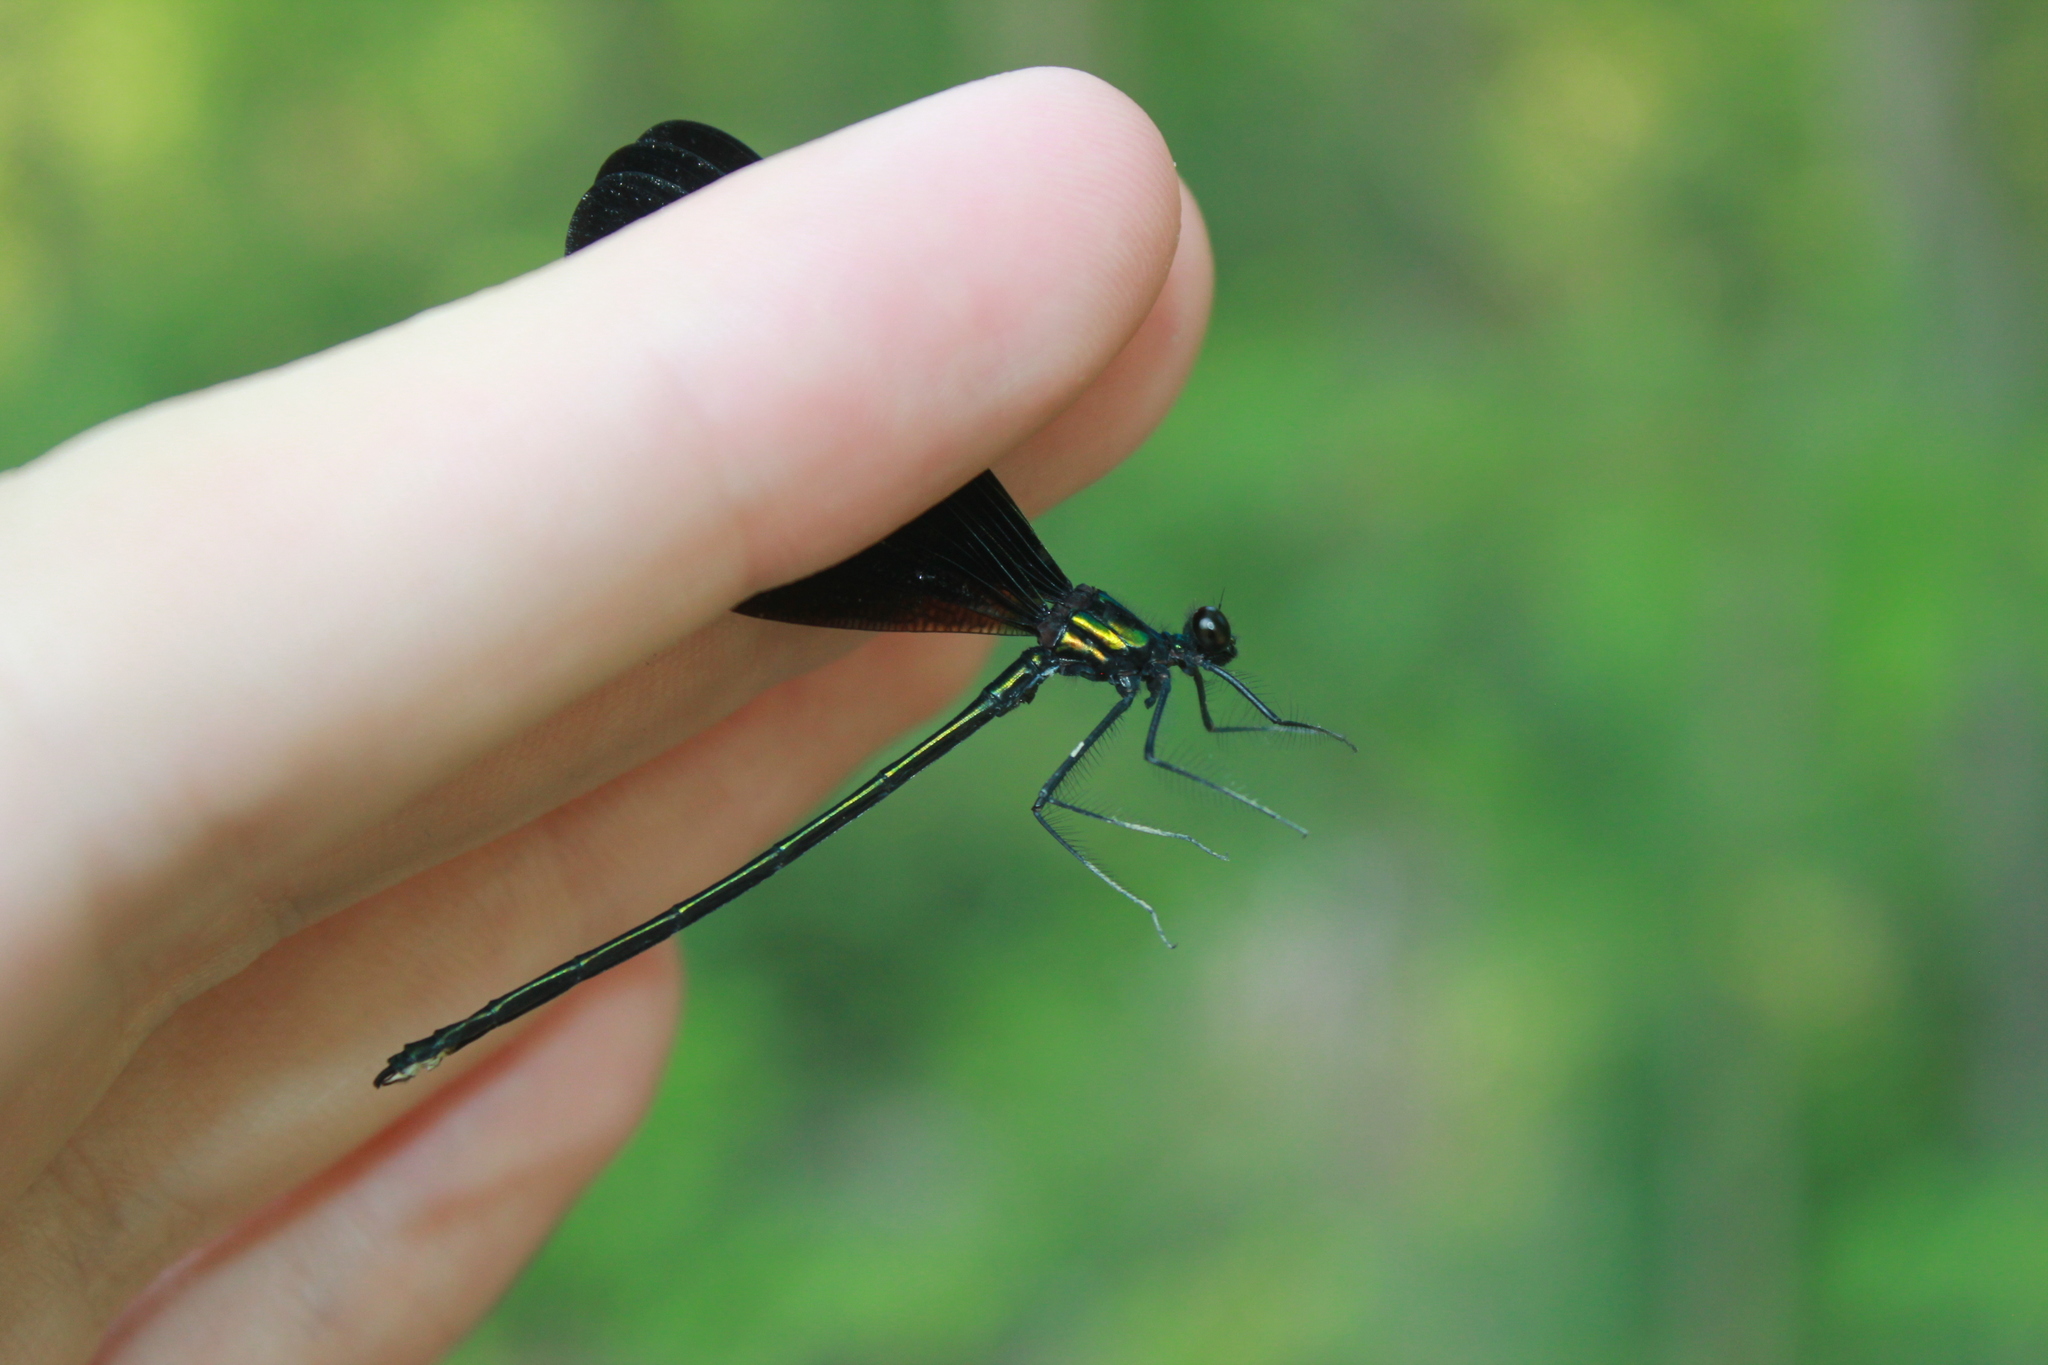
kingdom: Animalia
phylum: Arthropoda
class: Insecta
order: Odonata
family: Calopterygidae
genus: Calopteryx
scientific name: Calopteryx maculata
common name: Ebony jewelwing
